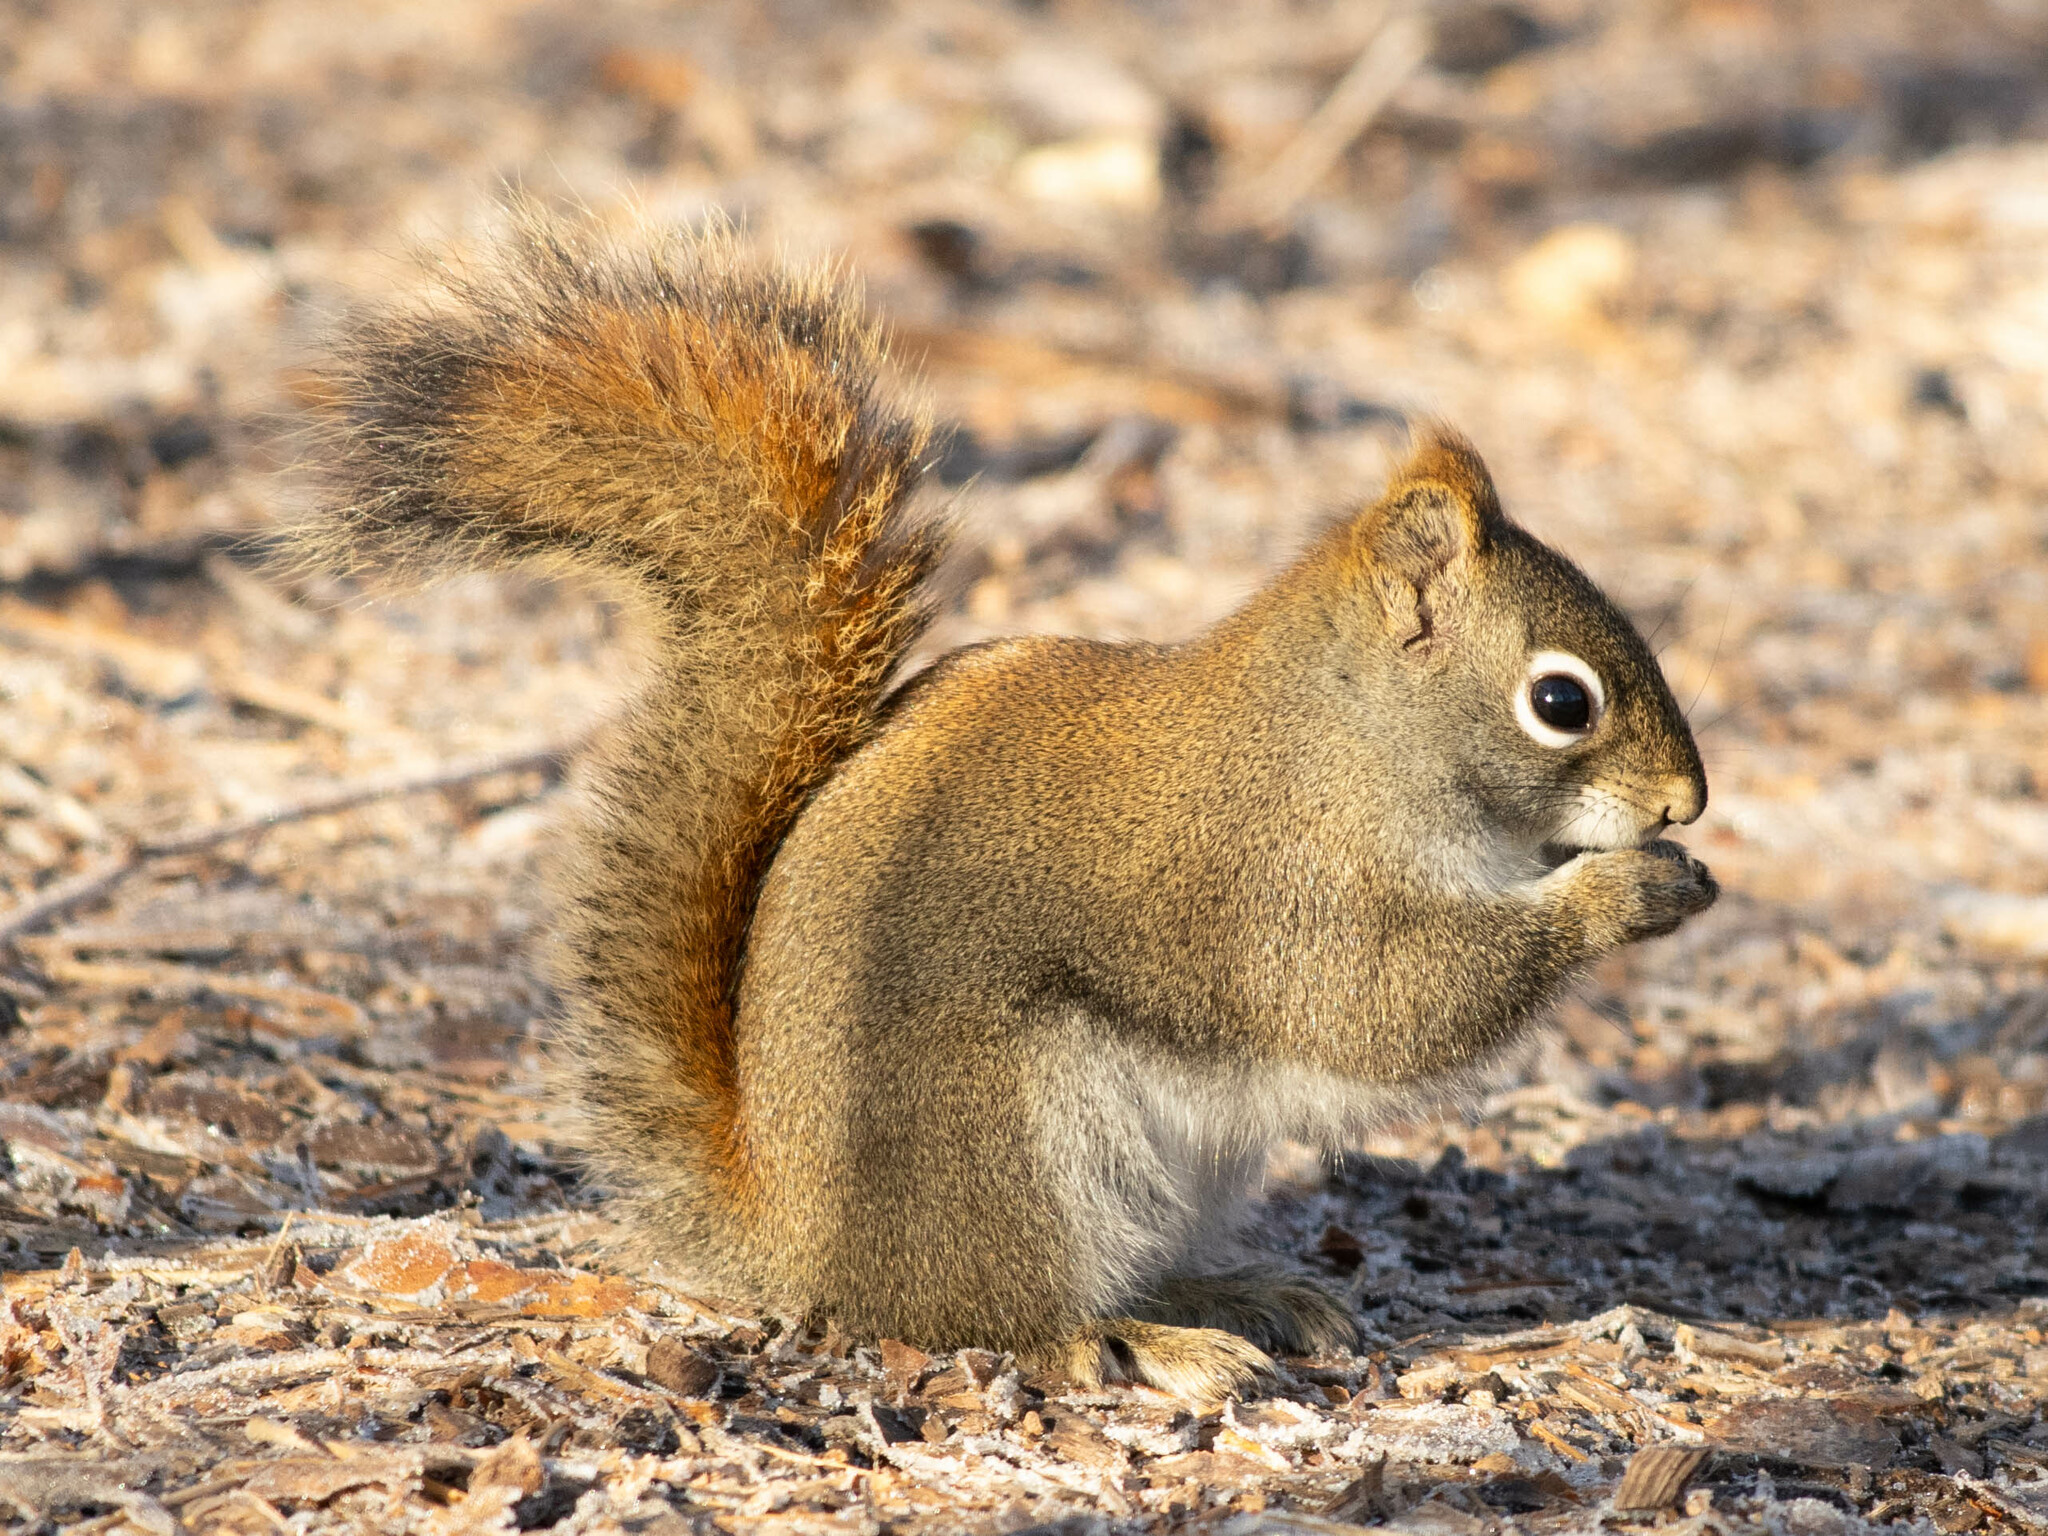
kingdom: Animalia
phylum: Chordata
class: Mammalia
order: Rodentia
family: Sciuridae
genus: Tamiasciurus
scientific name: Tamiasciurus hudsonicus
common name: Red squirrel
